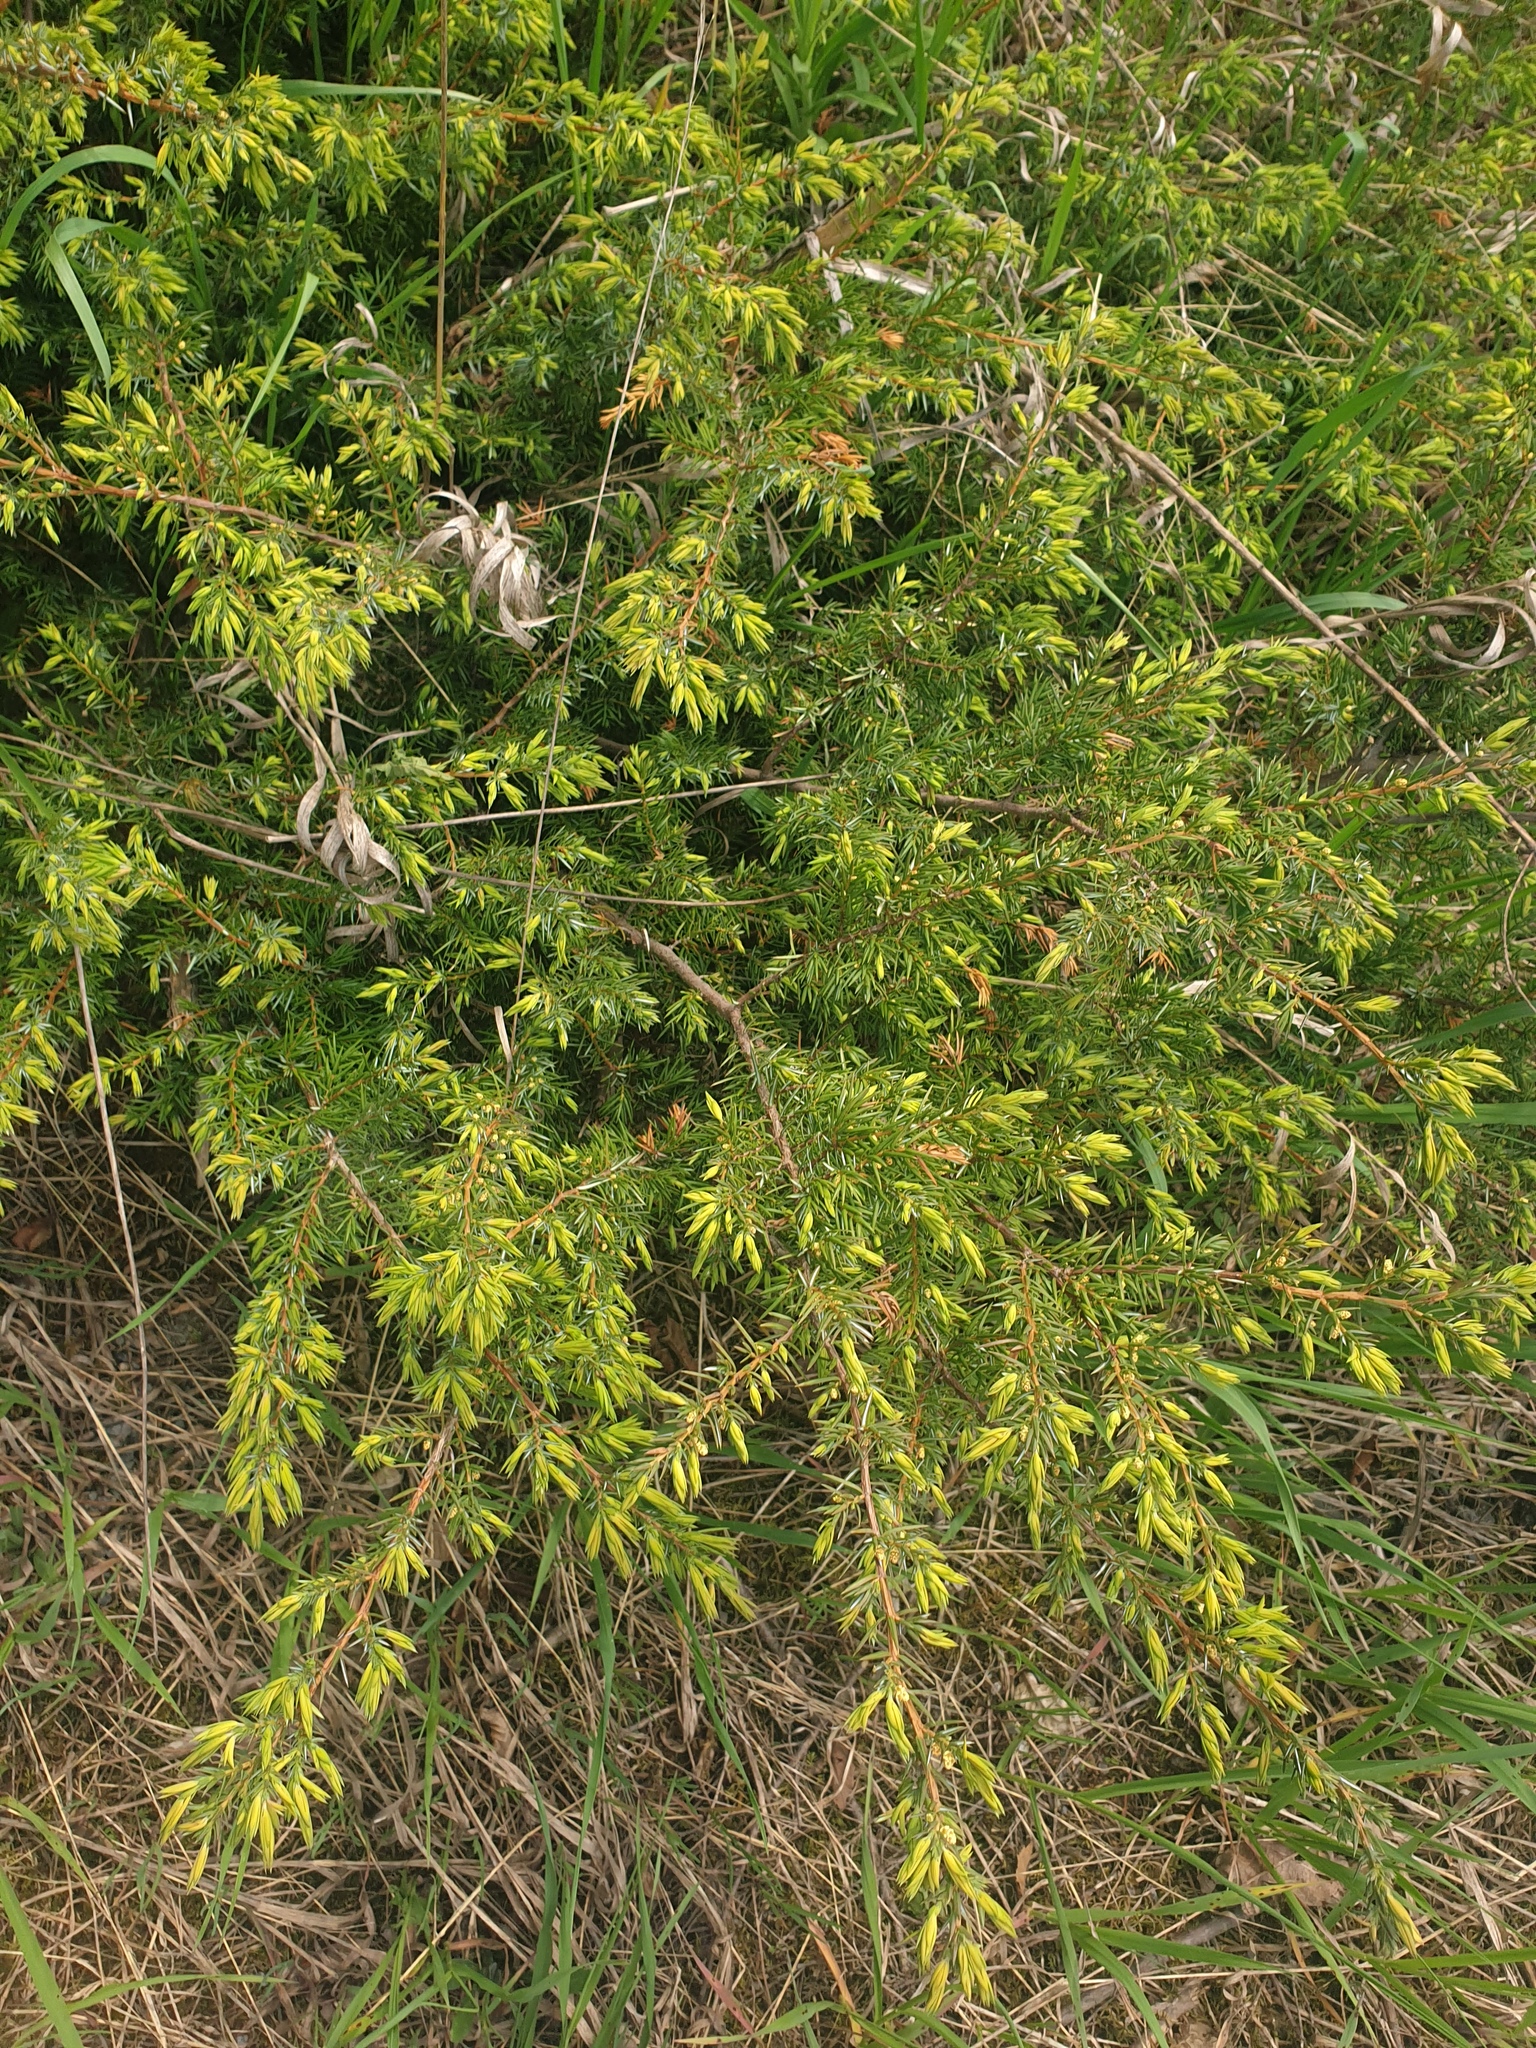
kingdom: Plantae
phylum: Tracheophyta
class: Pinopsida
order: Pinales
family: Cupressaceae
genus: Juniperus
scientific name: Juniperus communis
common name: Common juniper
